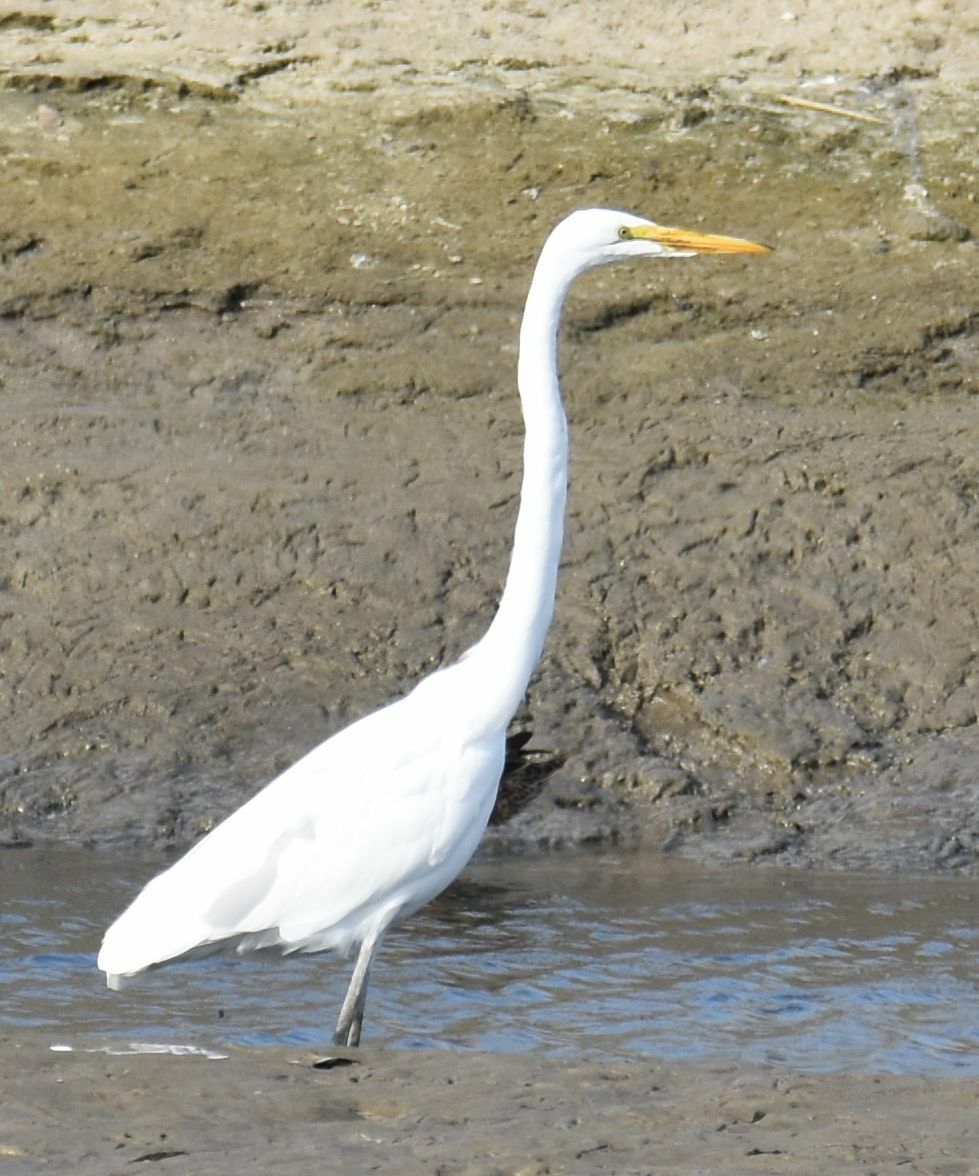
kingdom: Animalia
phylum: Chordata
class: Aves
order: Pelecaniformes
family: Ardeidae
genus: Ardea
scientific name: Ardea alba
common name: Great egret
